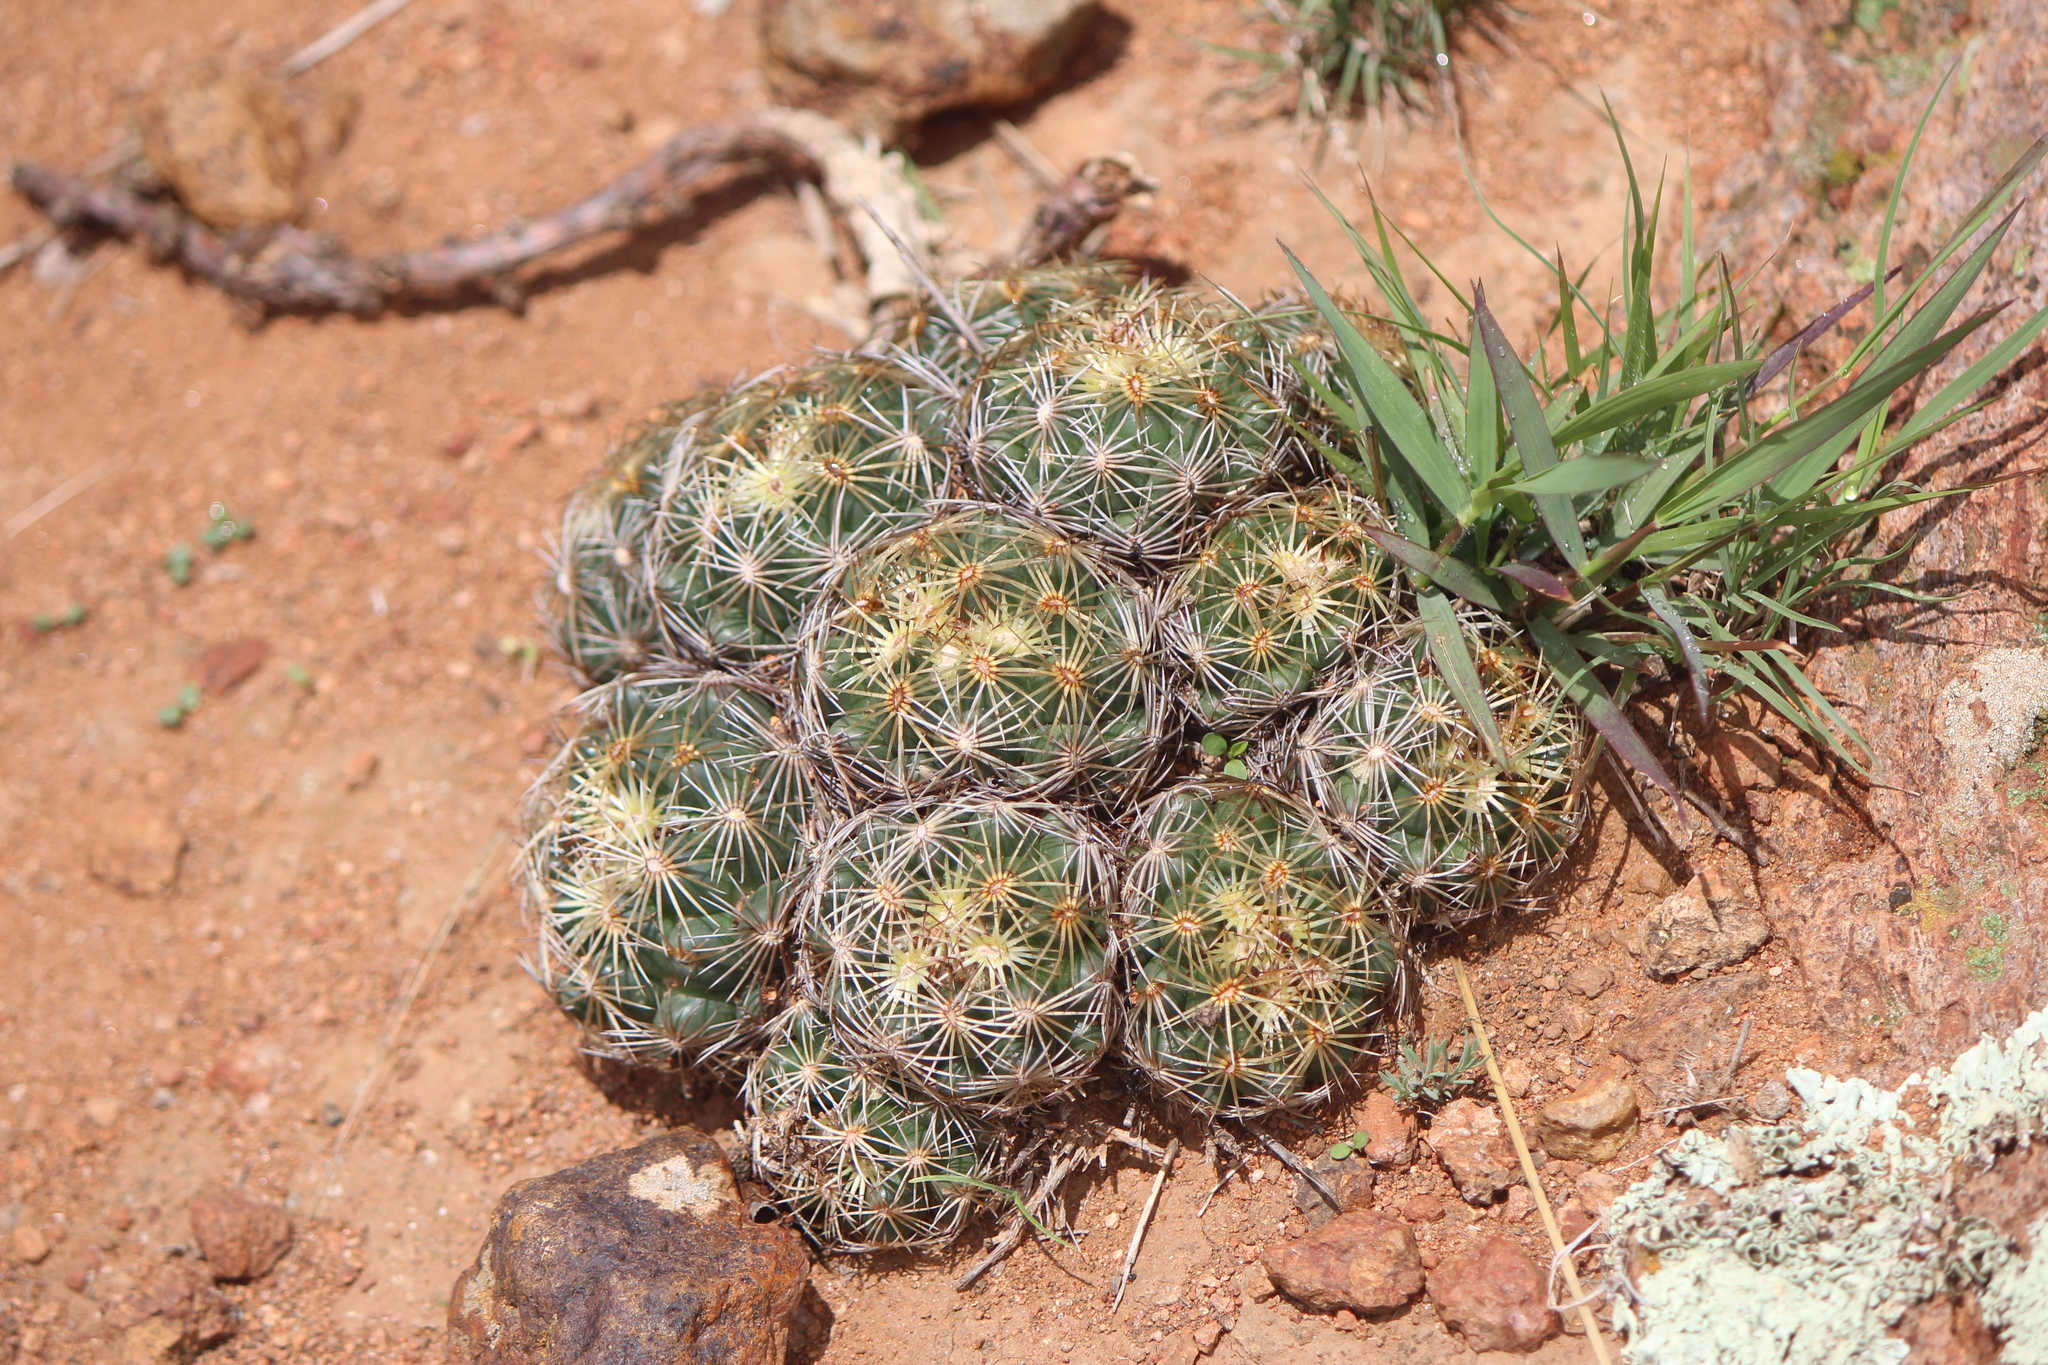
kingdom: Plantae
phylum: Tracheophyta
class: Magnoliopsida
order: Caryophyllales
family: Cactaceae
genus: Coryphantha
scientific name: Coryphantha cornifera
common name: Rhinoceros cactus
